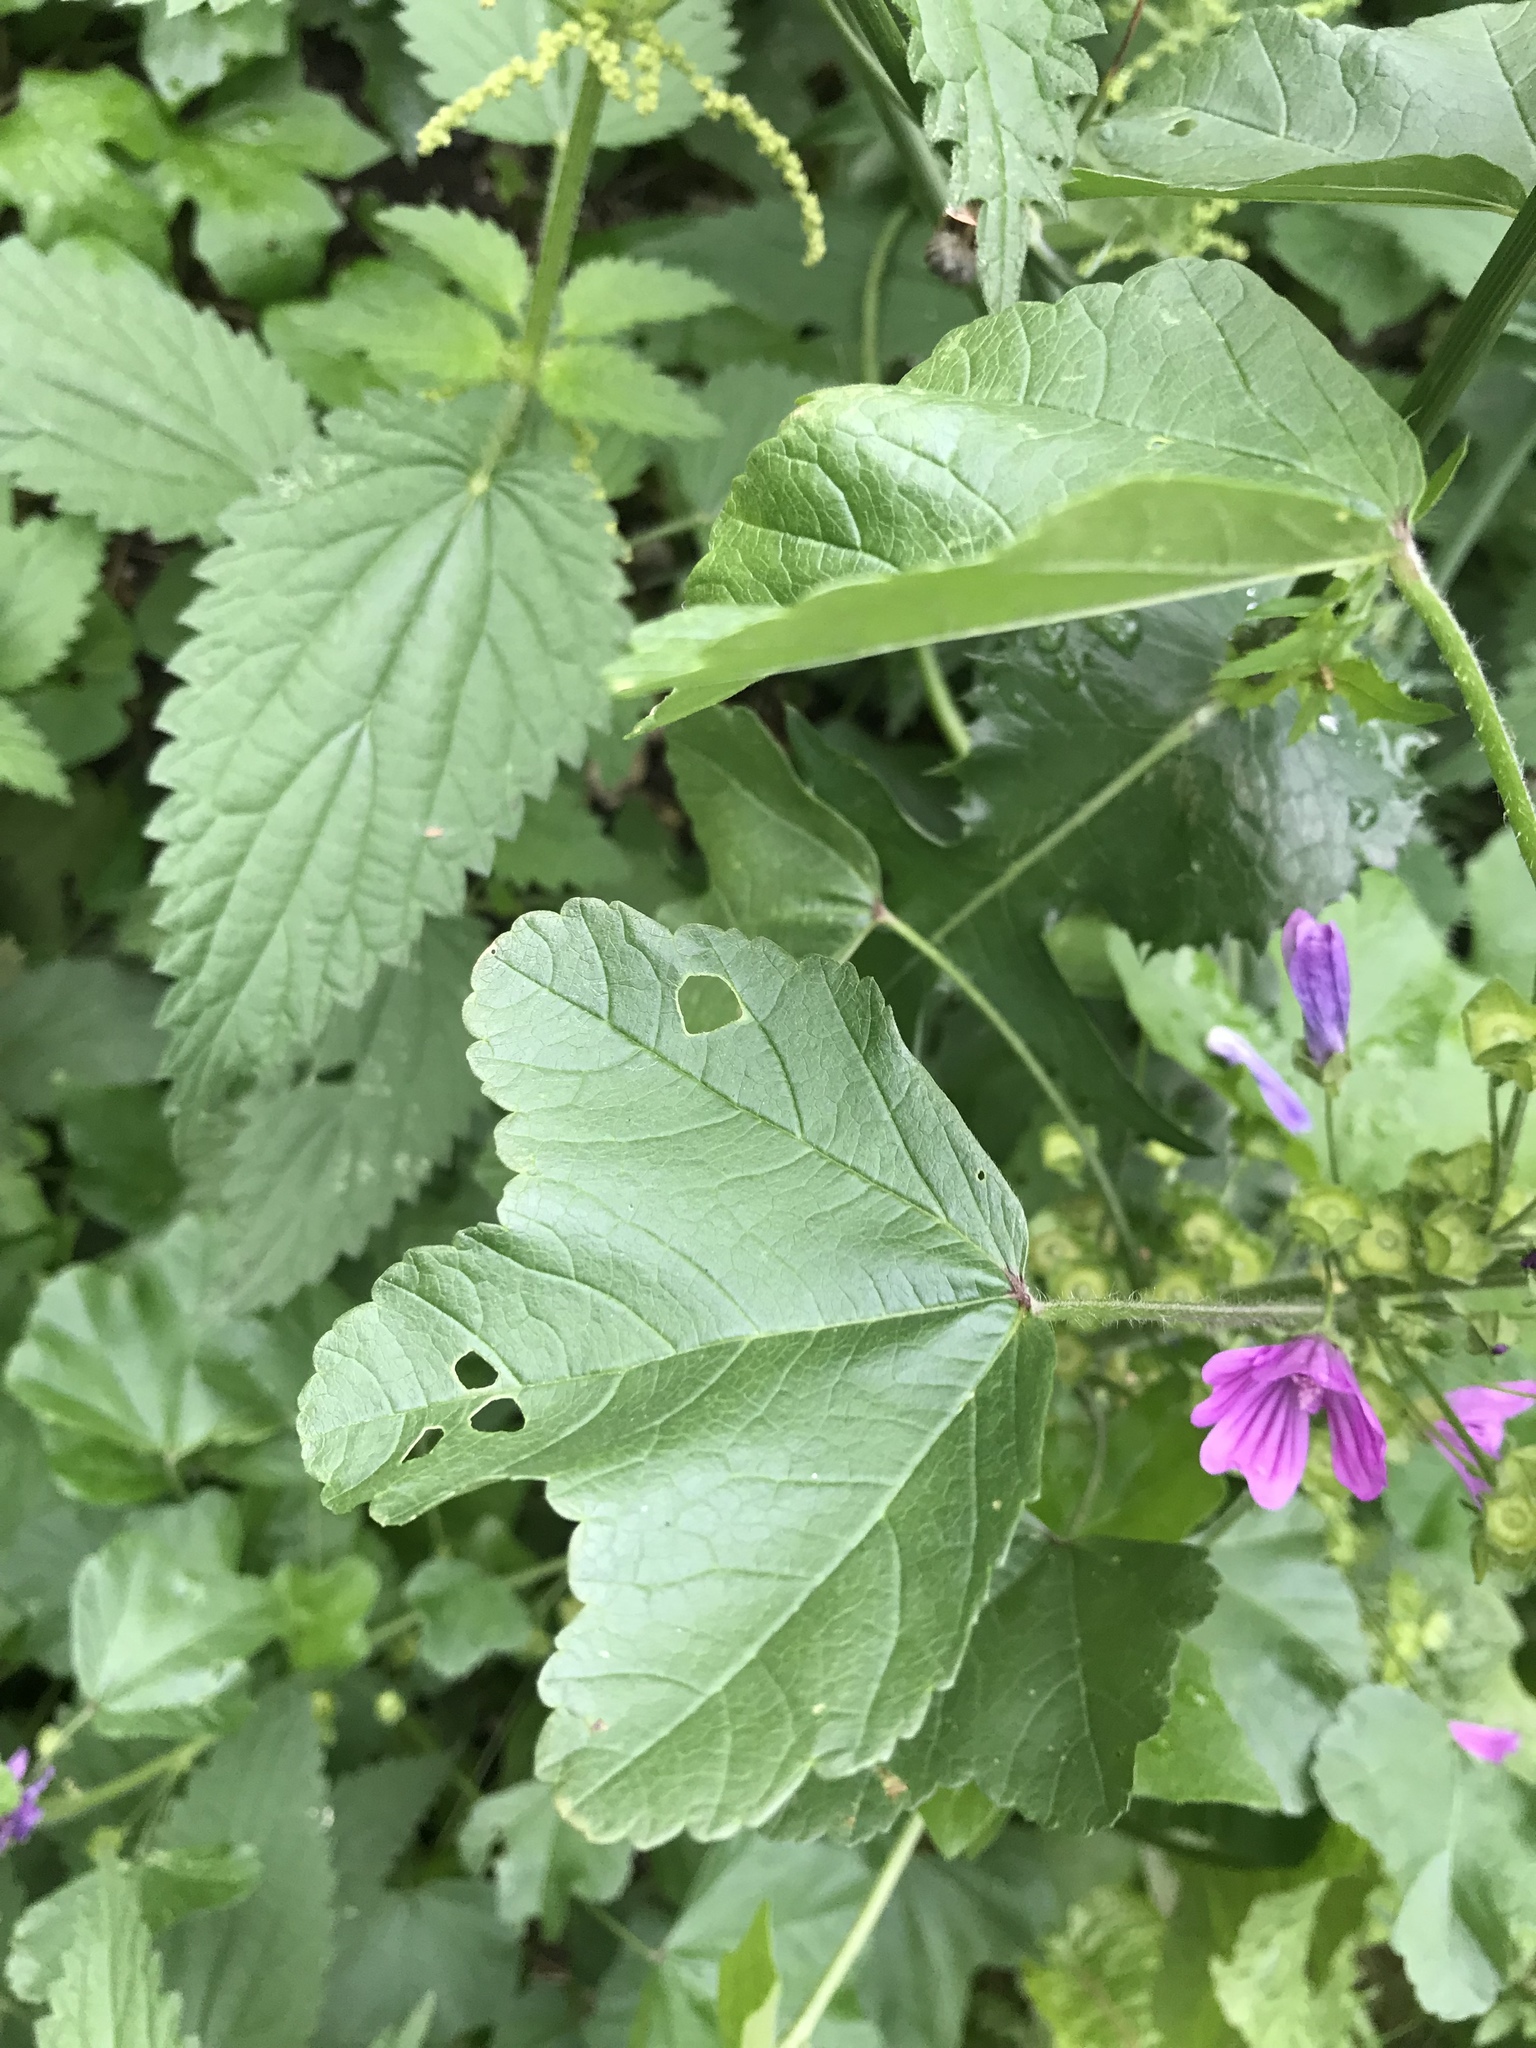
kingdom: Plantae
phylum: Tracheophyta
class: Magnoliopsida
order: Malvales
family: Malvaceae
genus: Malva
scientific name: Malva sylvestris
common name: Common mallow
